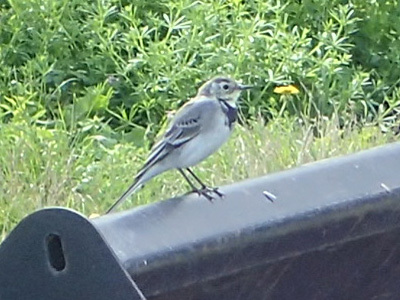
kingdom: Animalia
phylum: Chordata
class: Aves
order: Passeriformes
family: Motacillidae
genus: Motacilla
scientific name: Motacilla alba
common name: White wagtail
